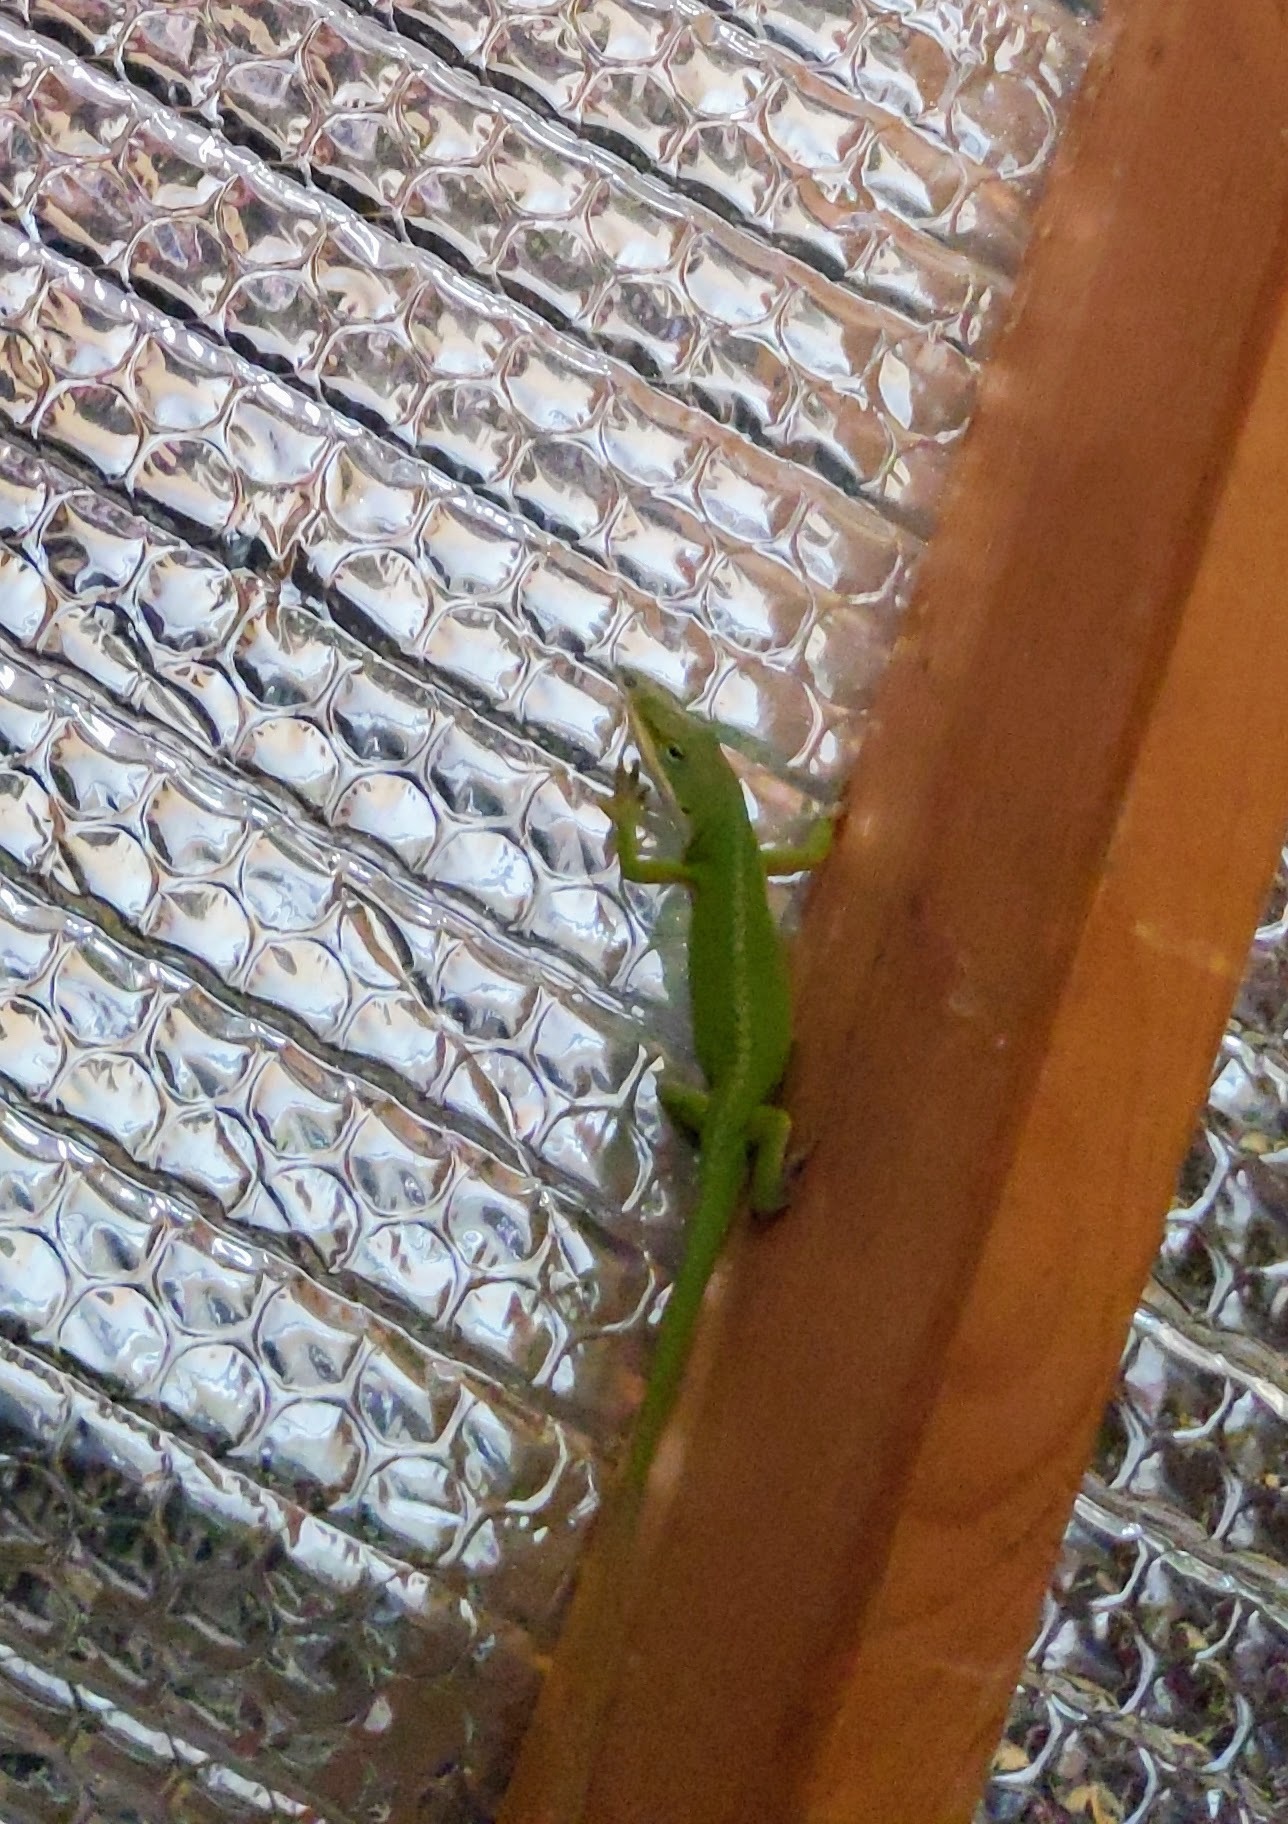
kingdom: Animalia
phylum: Chordata
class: Squamata
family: Dactyloidae
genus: Anolis
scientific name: Anolis carolinensis
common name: Green anole
